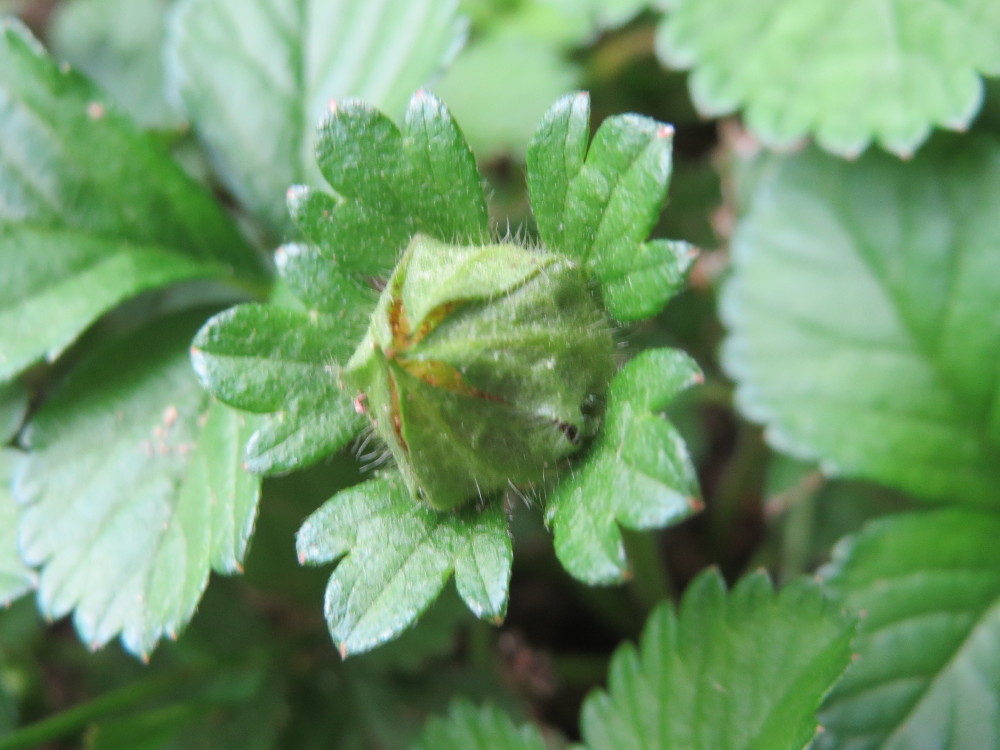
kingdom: Plantae
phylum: Tracheophyta
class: Magnoliopsida
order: Rosales
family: Rosaceae
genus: Potentilla
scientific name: Potentilla indica
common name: Yellow-flowered strawberry
